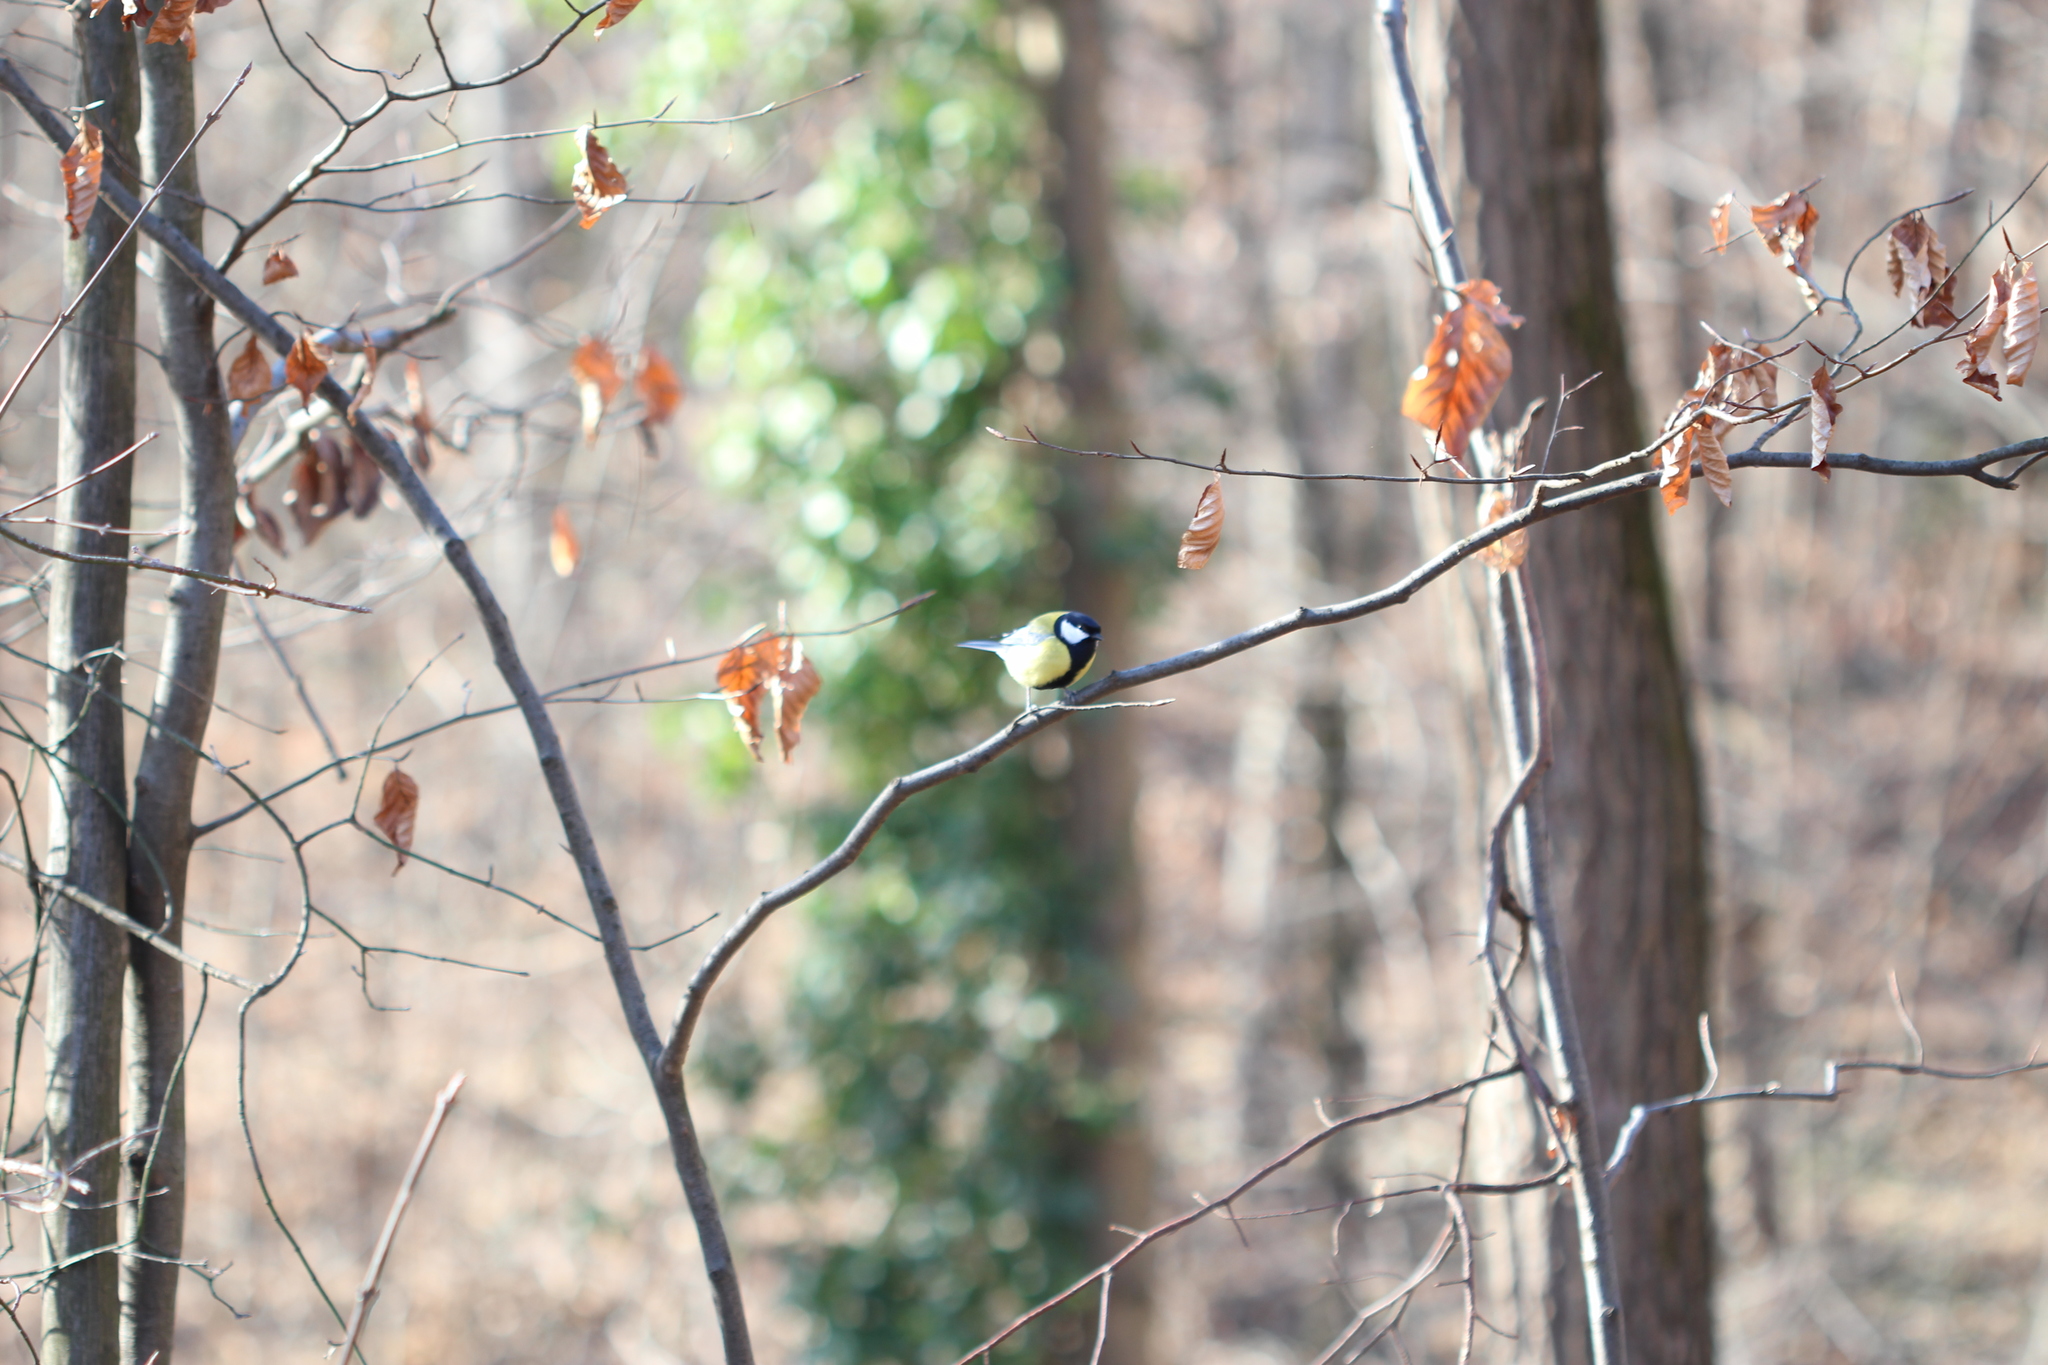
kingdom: Animalia
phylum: Chordata
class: Aves
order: Passeriformes
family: Paridae
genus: Parus
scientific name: Parus major
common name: Great tit
